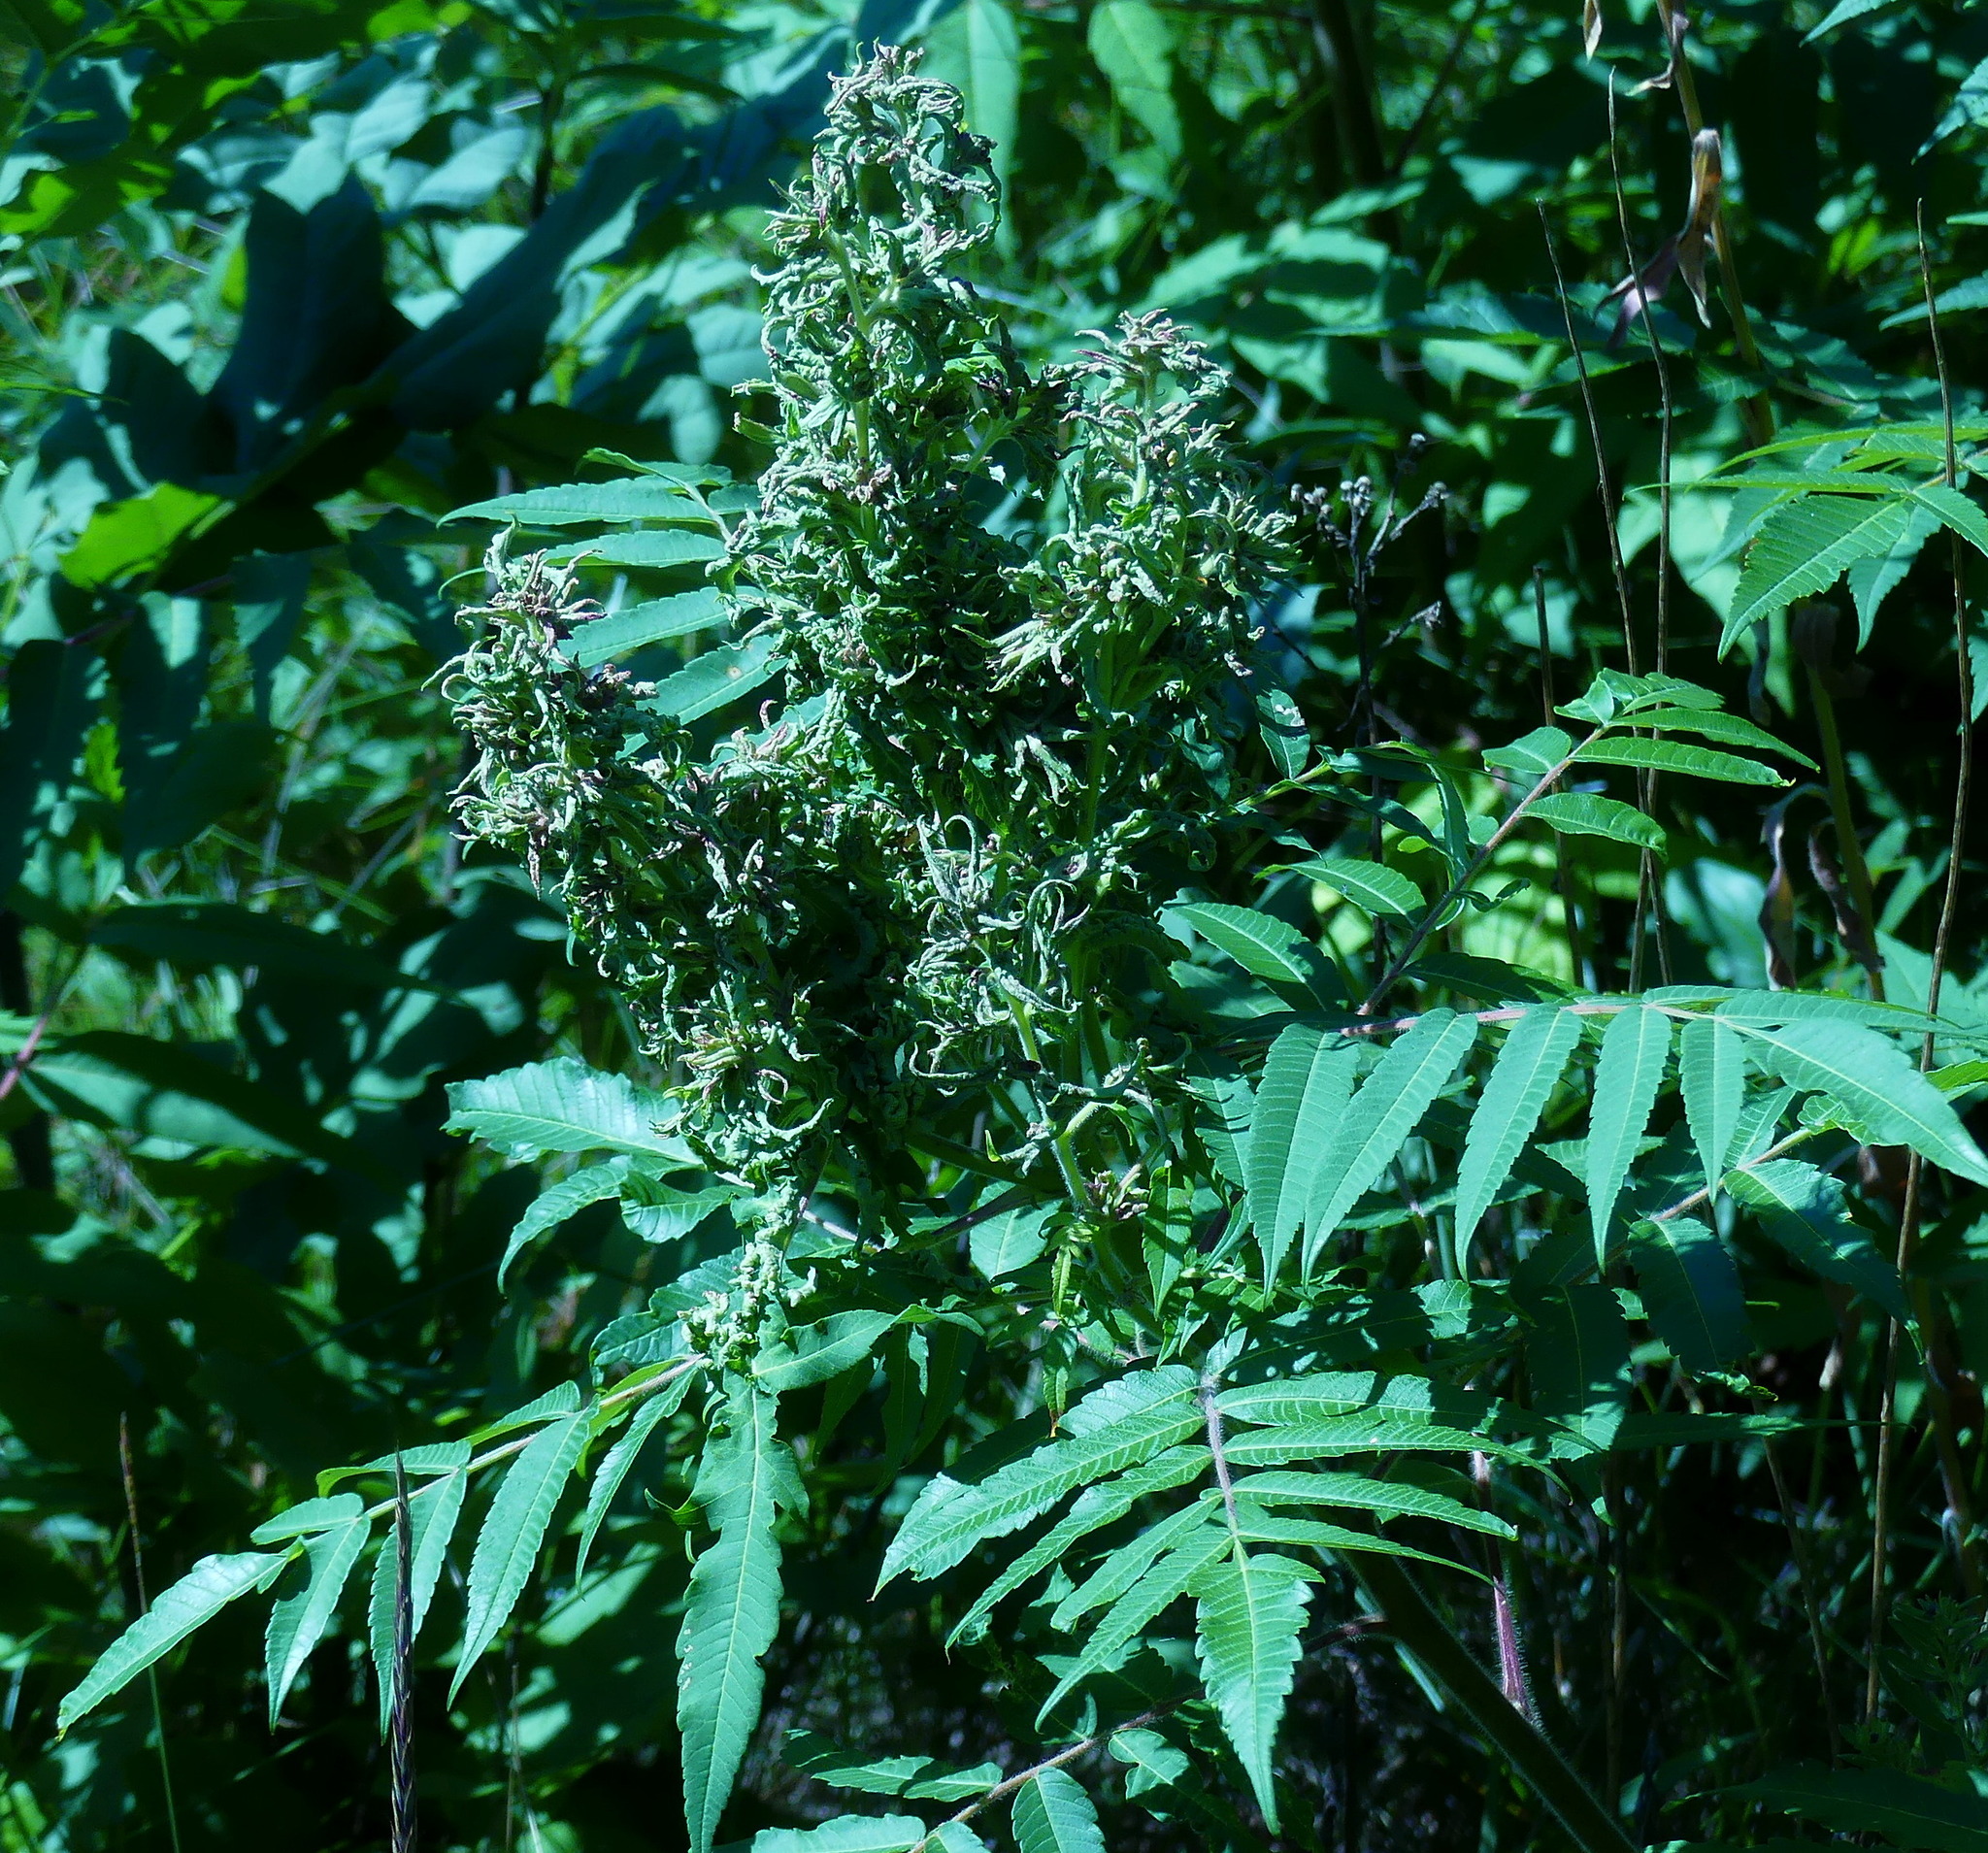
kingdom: Plantae
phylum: Tracheophyta
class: Magnoliopsida
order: Sapindales
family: Anacardiaceae
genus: Rhus
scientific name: Rhus typhina
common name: Staghorn sumac
